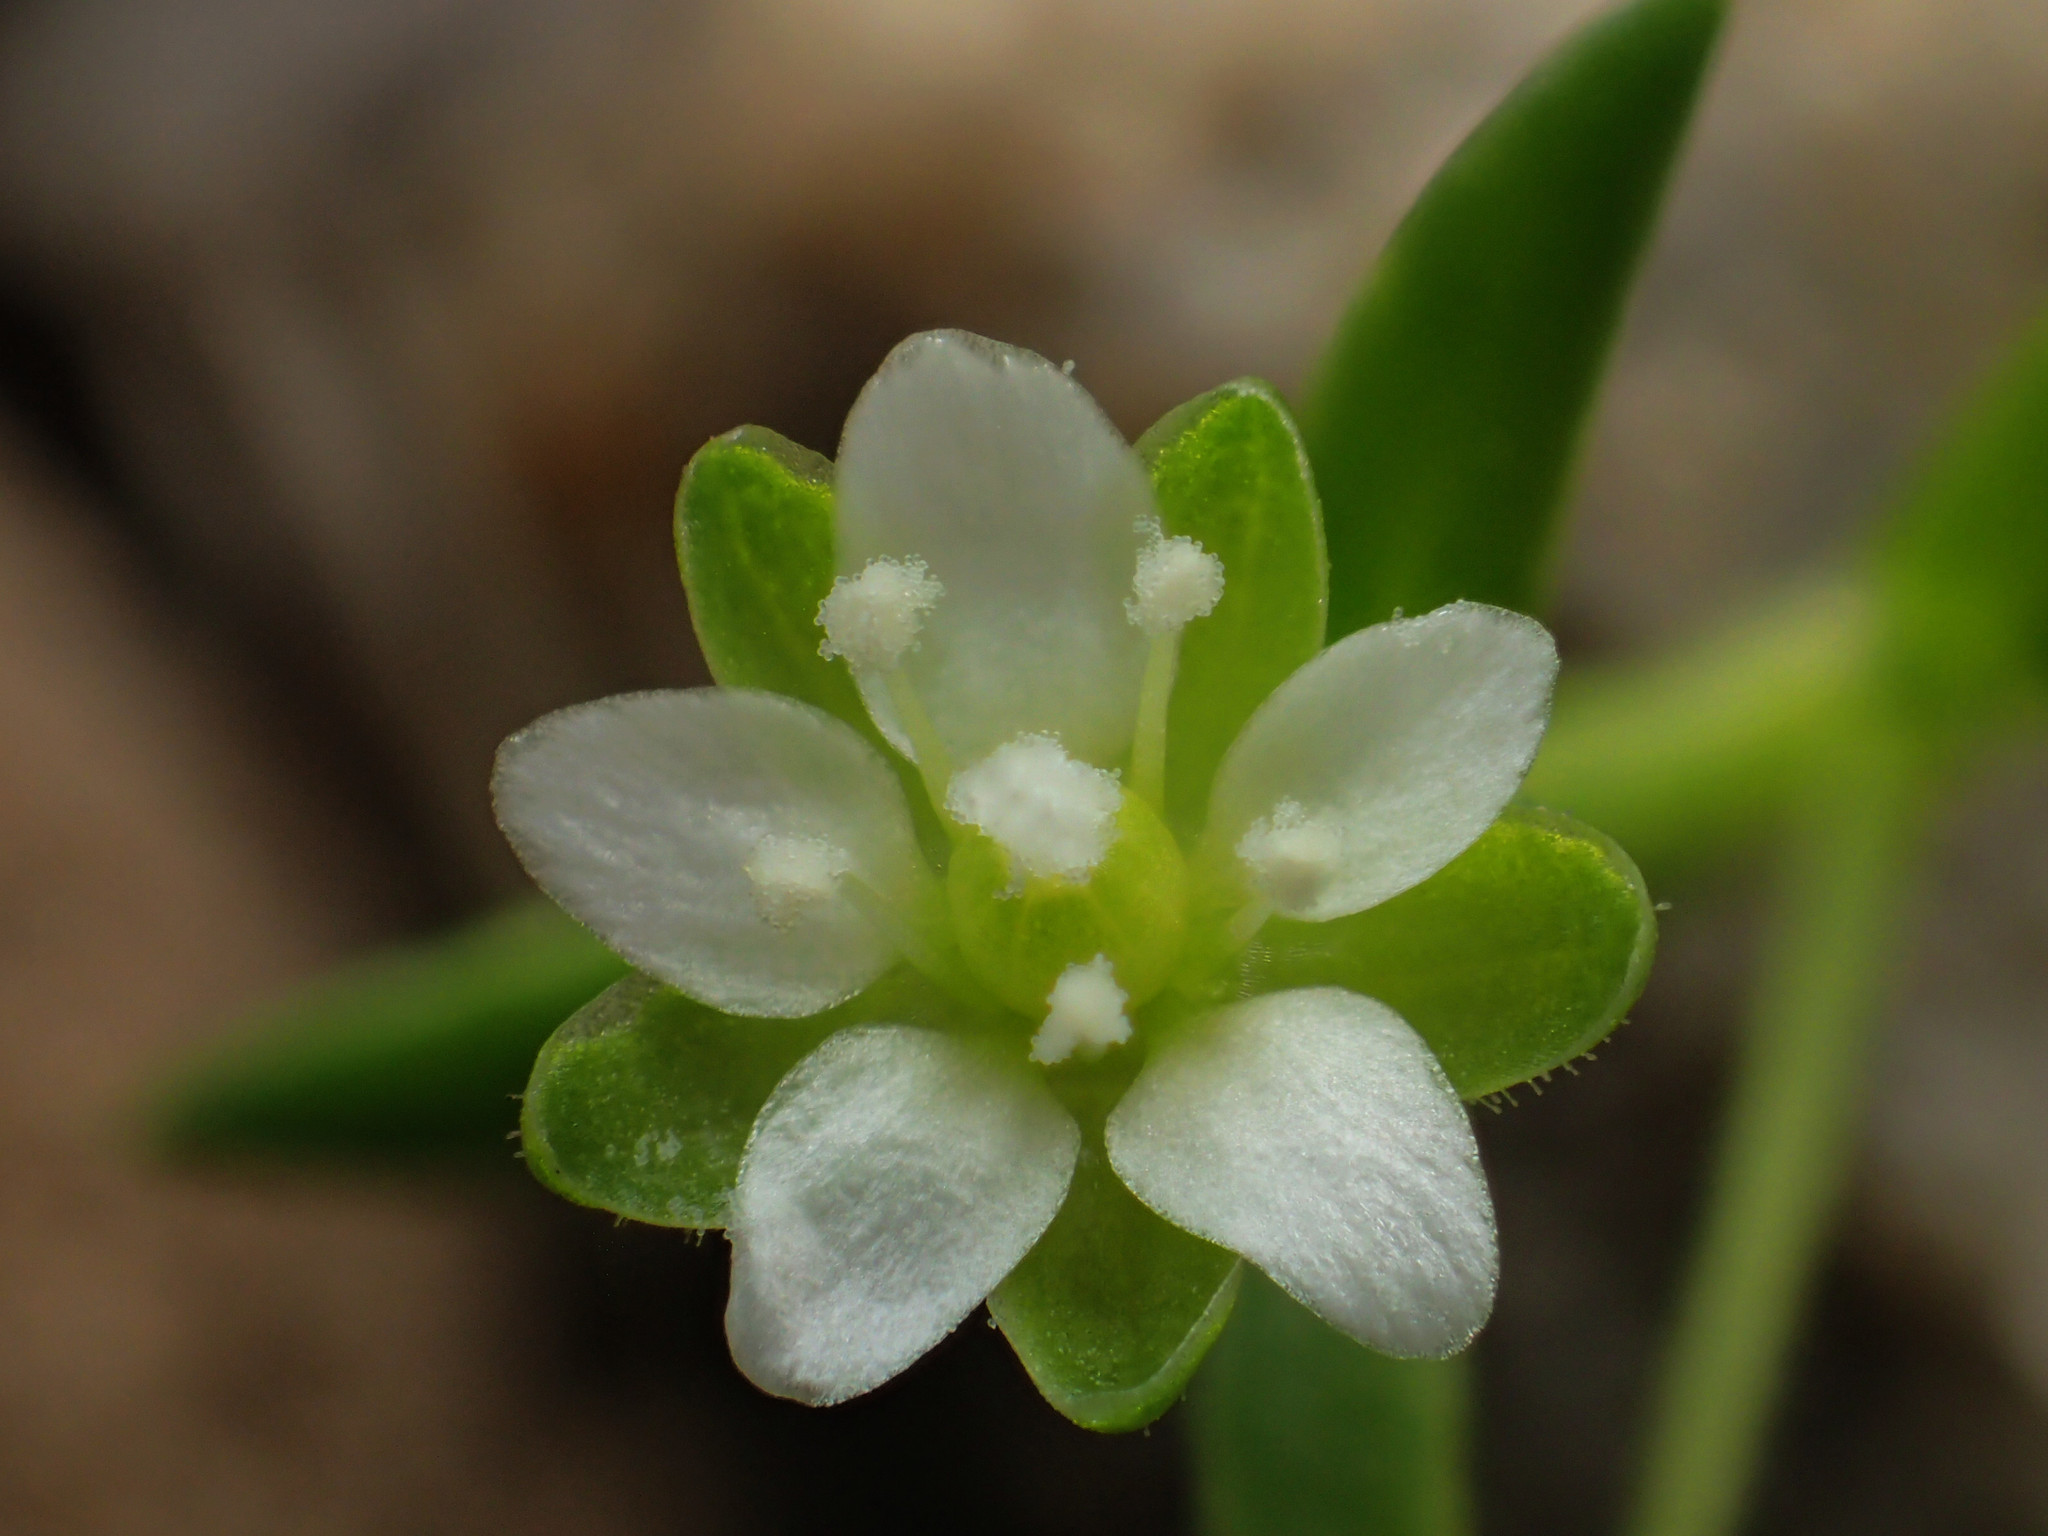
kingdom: Plantae
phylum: Tracheophyta
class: Magnoliopsida
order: Caryophyllales
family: Caryophyllaceae
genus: Sagina
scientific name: Sagina japonica
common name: Japanese pearlwort
